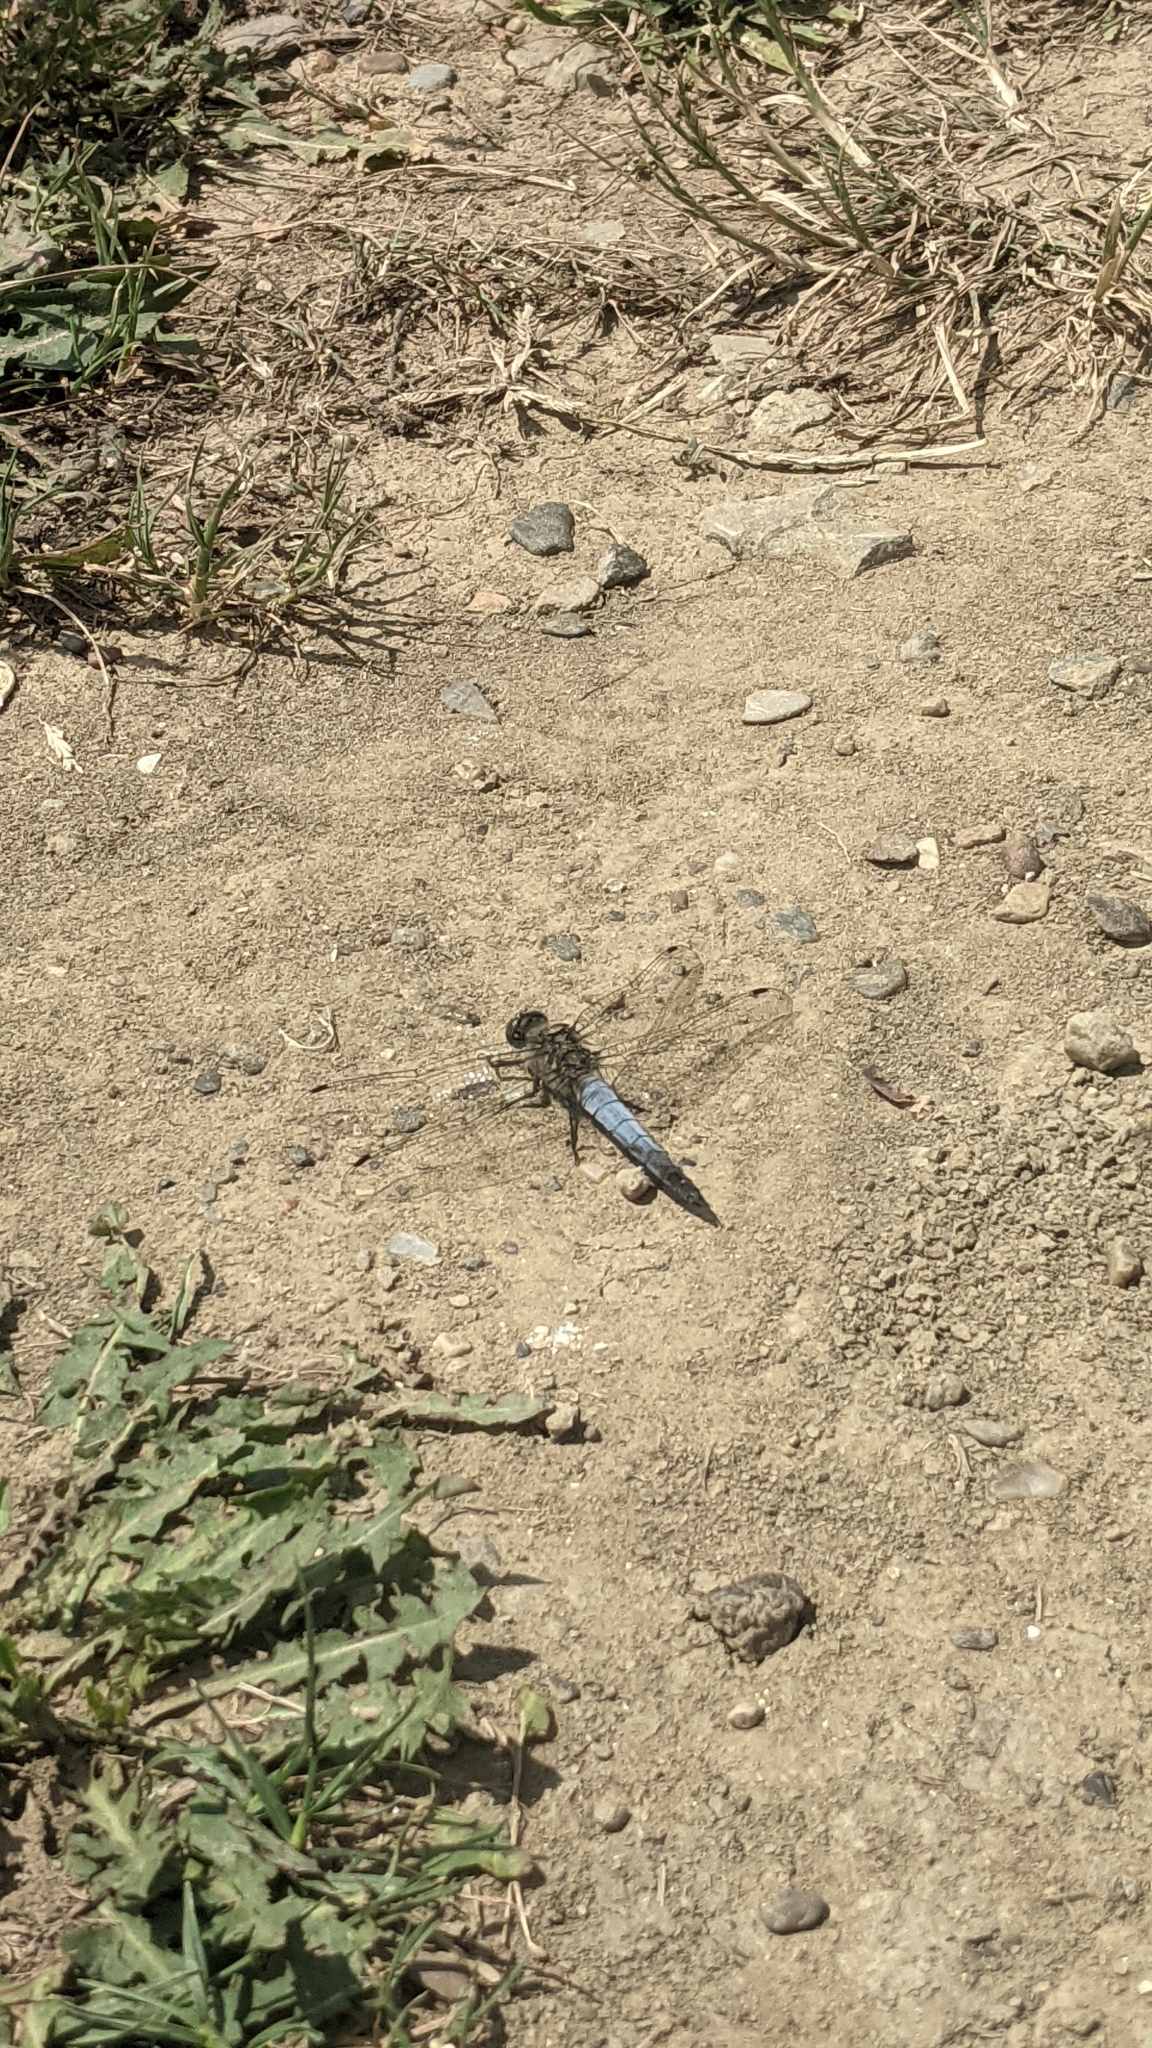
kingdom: Animalia
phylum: Arthropoda
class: Insecta
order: Odonata
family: Libellulidae
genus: Orthetrum
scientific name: Orthetrum cancellatum
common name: Black-tailed skimmer
